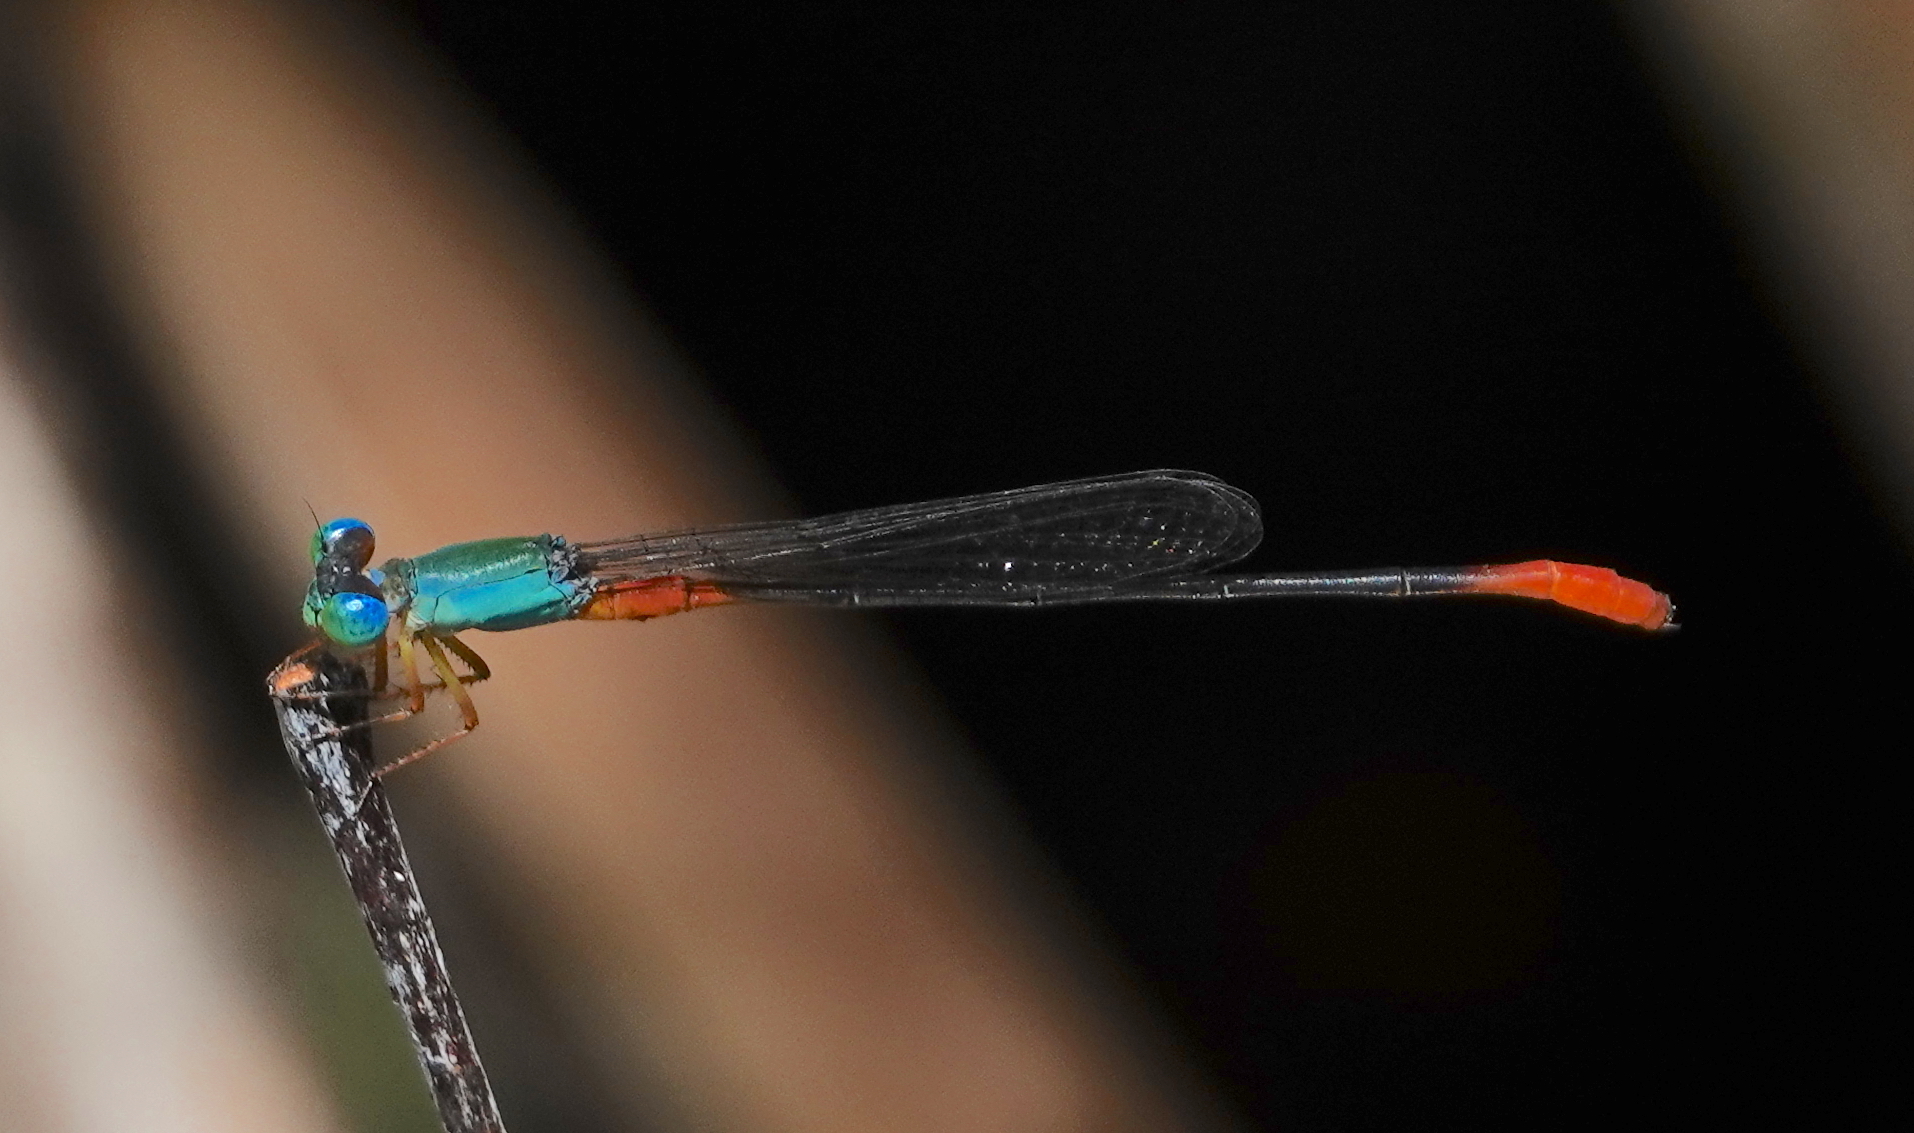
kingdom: Animalia
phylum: Arthropoda
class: Insecta
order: Odonata
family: Coenagrionidae
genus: Ceriagrion
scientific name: Ceriagrion cerinorubellum
